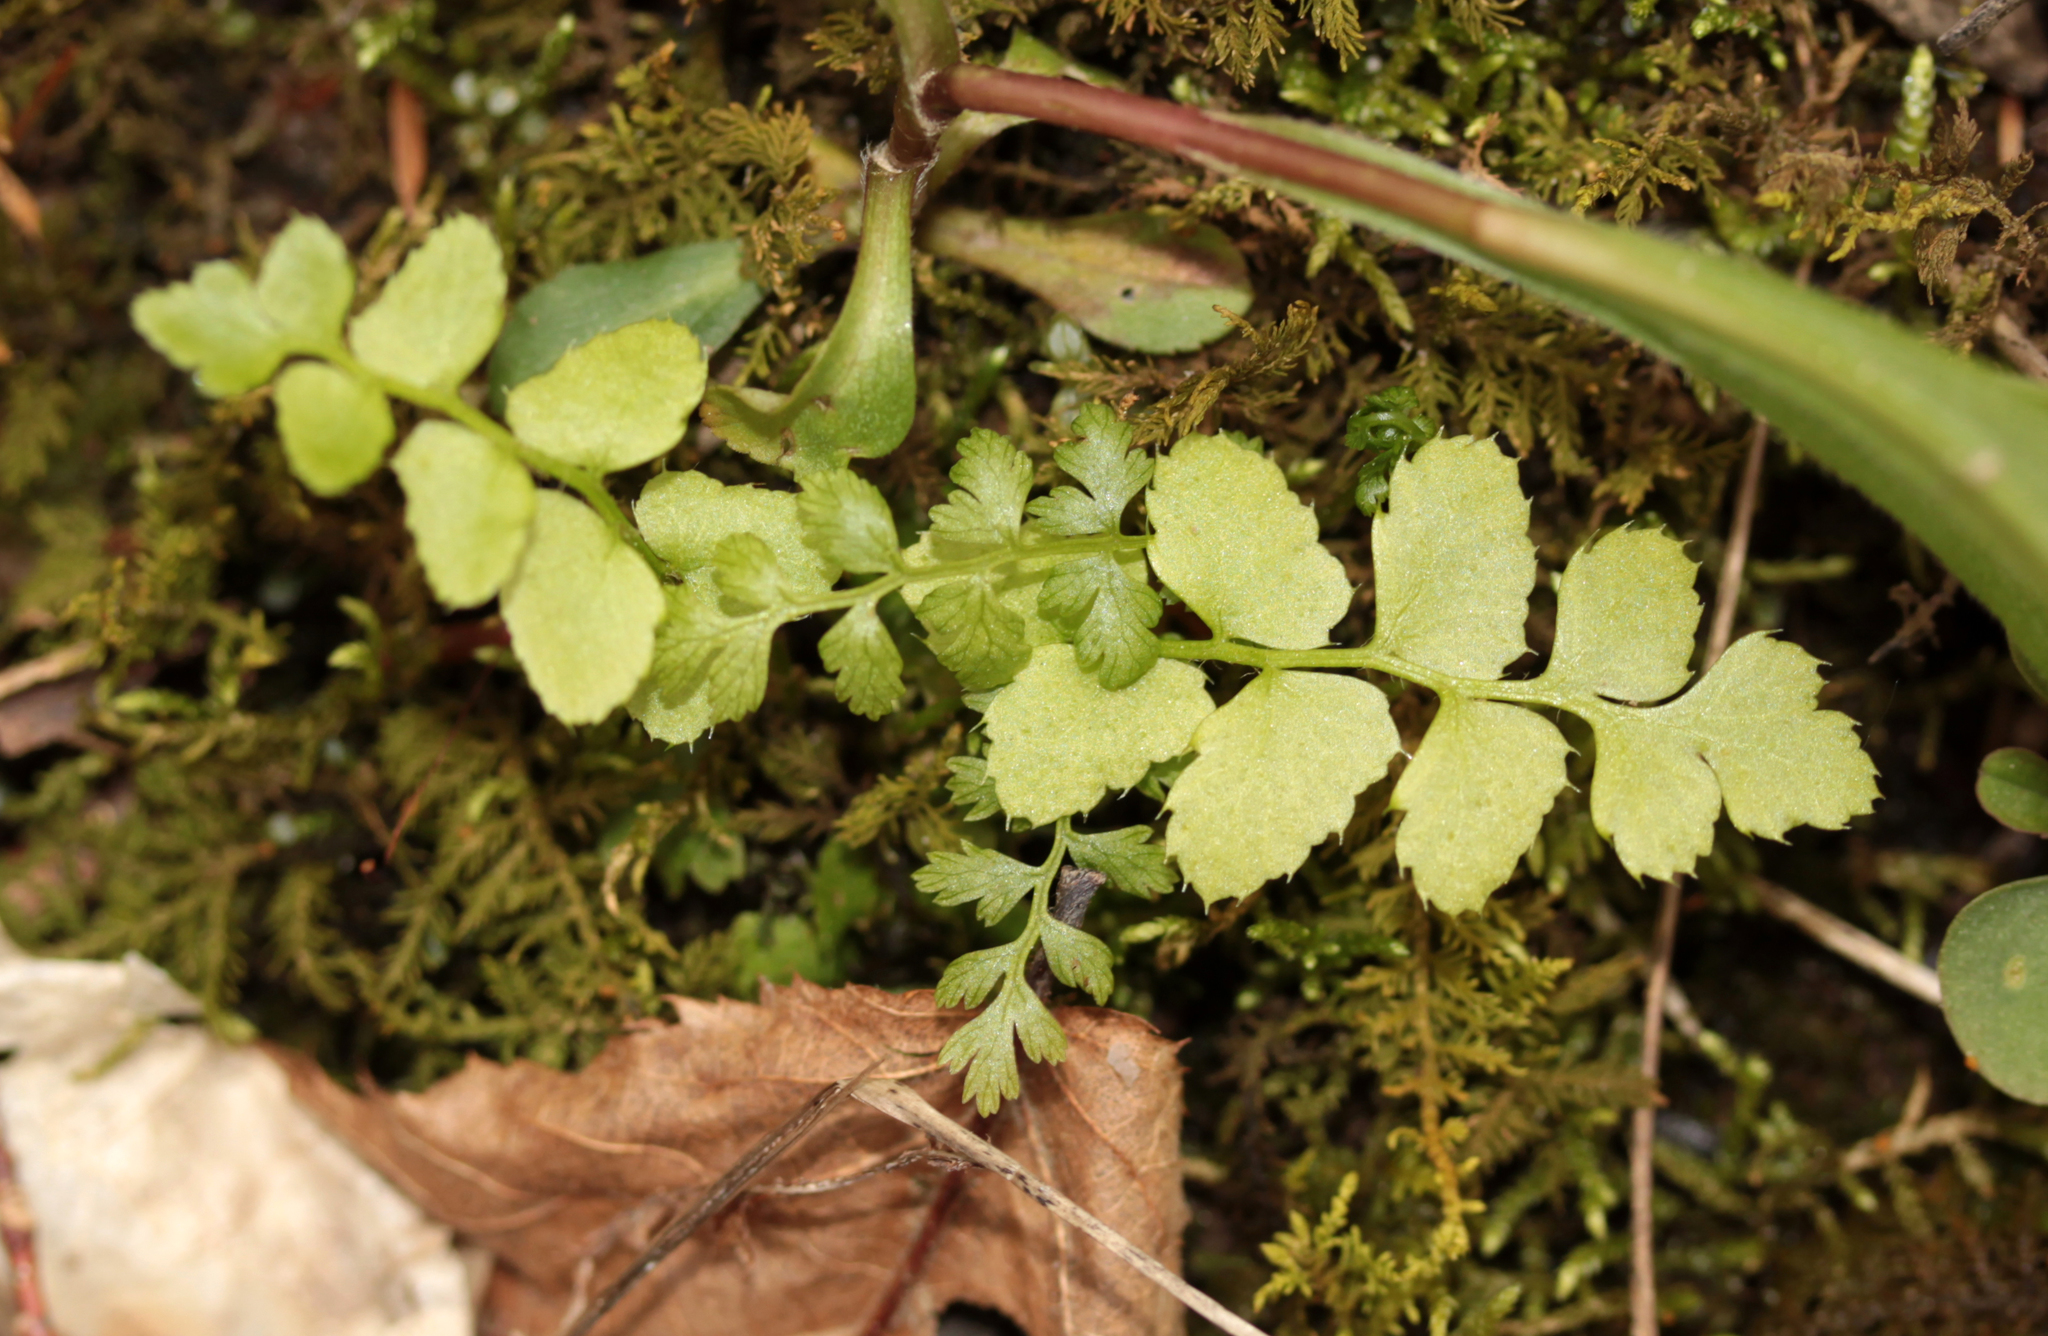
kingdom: Plantae
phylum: Tracheophyta
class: Polypodiopsida
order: Polypodiales
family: Dryopteridaceae
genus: Polystichum
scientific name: Polystichum acrostichoides
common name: Christmas fern
